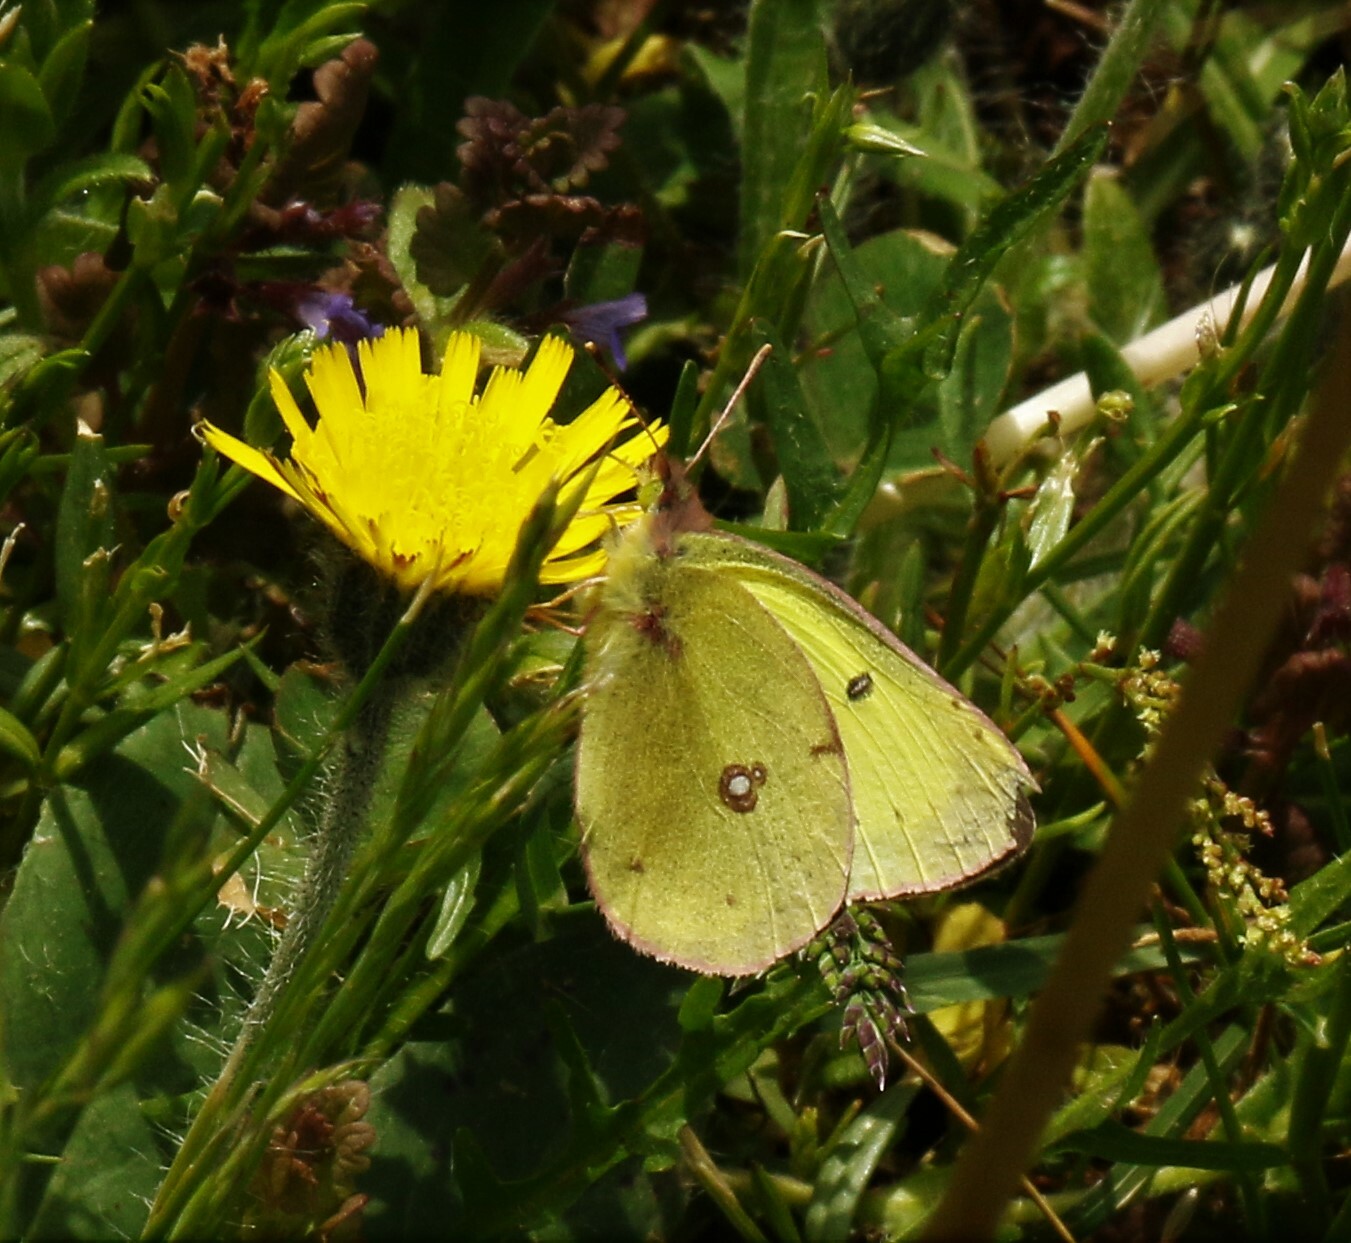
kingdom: Animalia
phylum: Arthropoda
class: Insecta
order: Lepidoptera
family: Pieridae
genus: Colias
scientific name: Colias philodice
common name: Clouded sulphur
